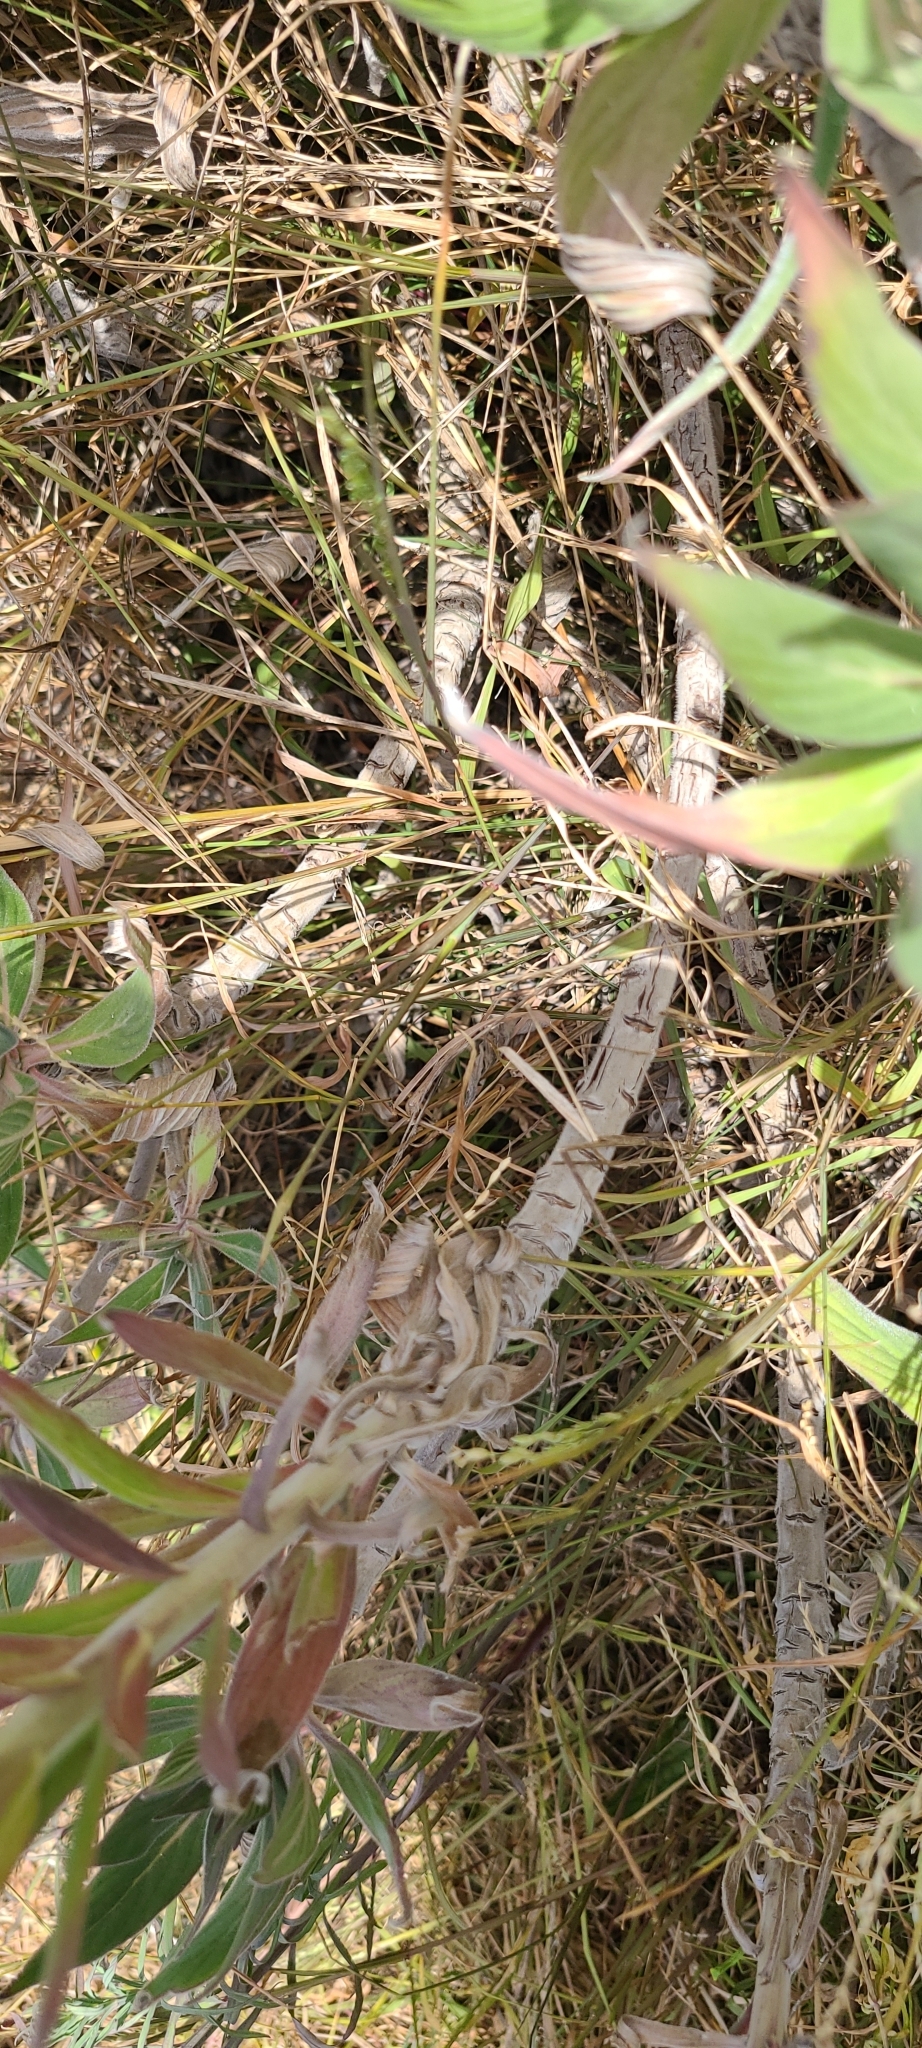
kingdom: Plantae
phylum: Tracheophyta
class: Magnoliopsida
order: Boraginales
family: Boraginaceae
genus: Echium
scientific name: Echium candicans
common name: Pride of madeira
